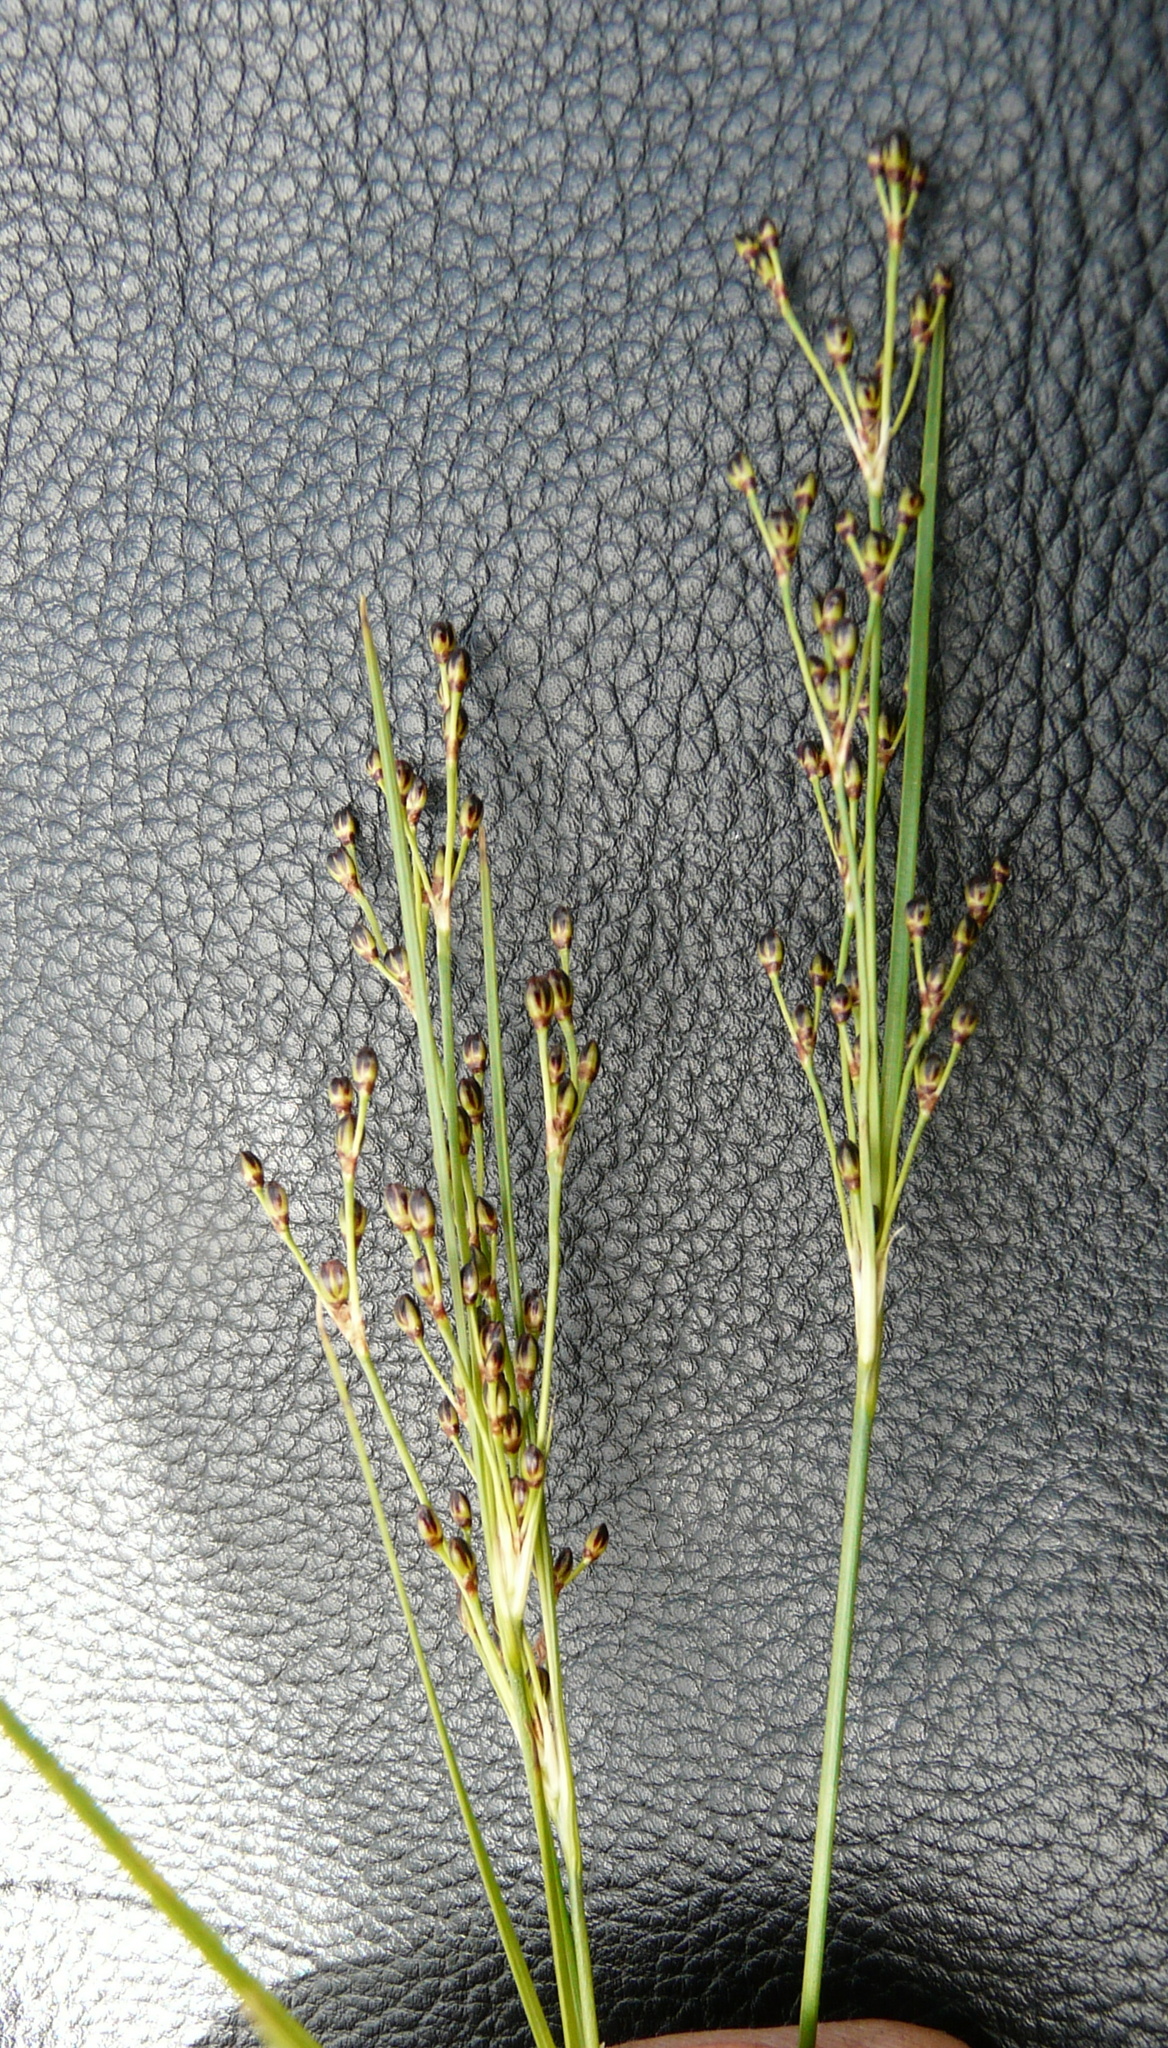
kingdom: Plantae
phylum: Tracheophyta
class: Liliopsida
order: Poales
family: Juncaceae
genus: Juncus
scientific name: Juncus gerardi
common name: Saltmarsh rush
